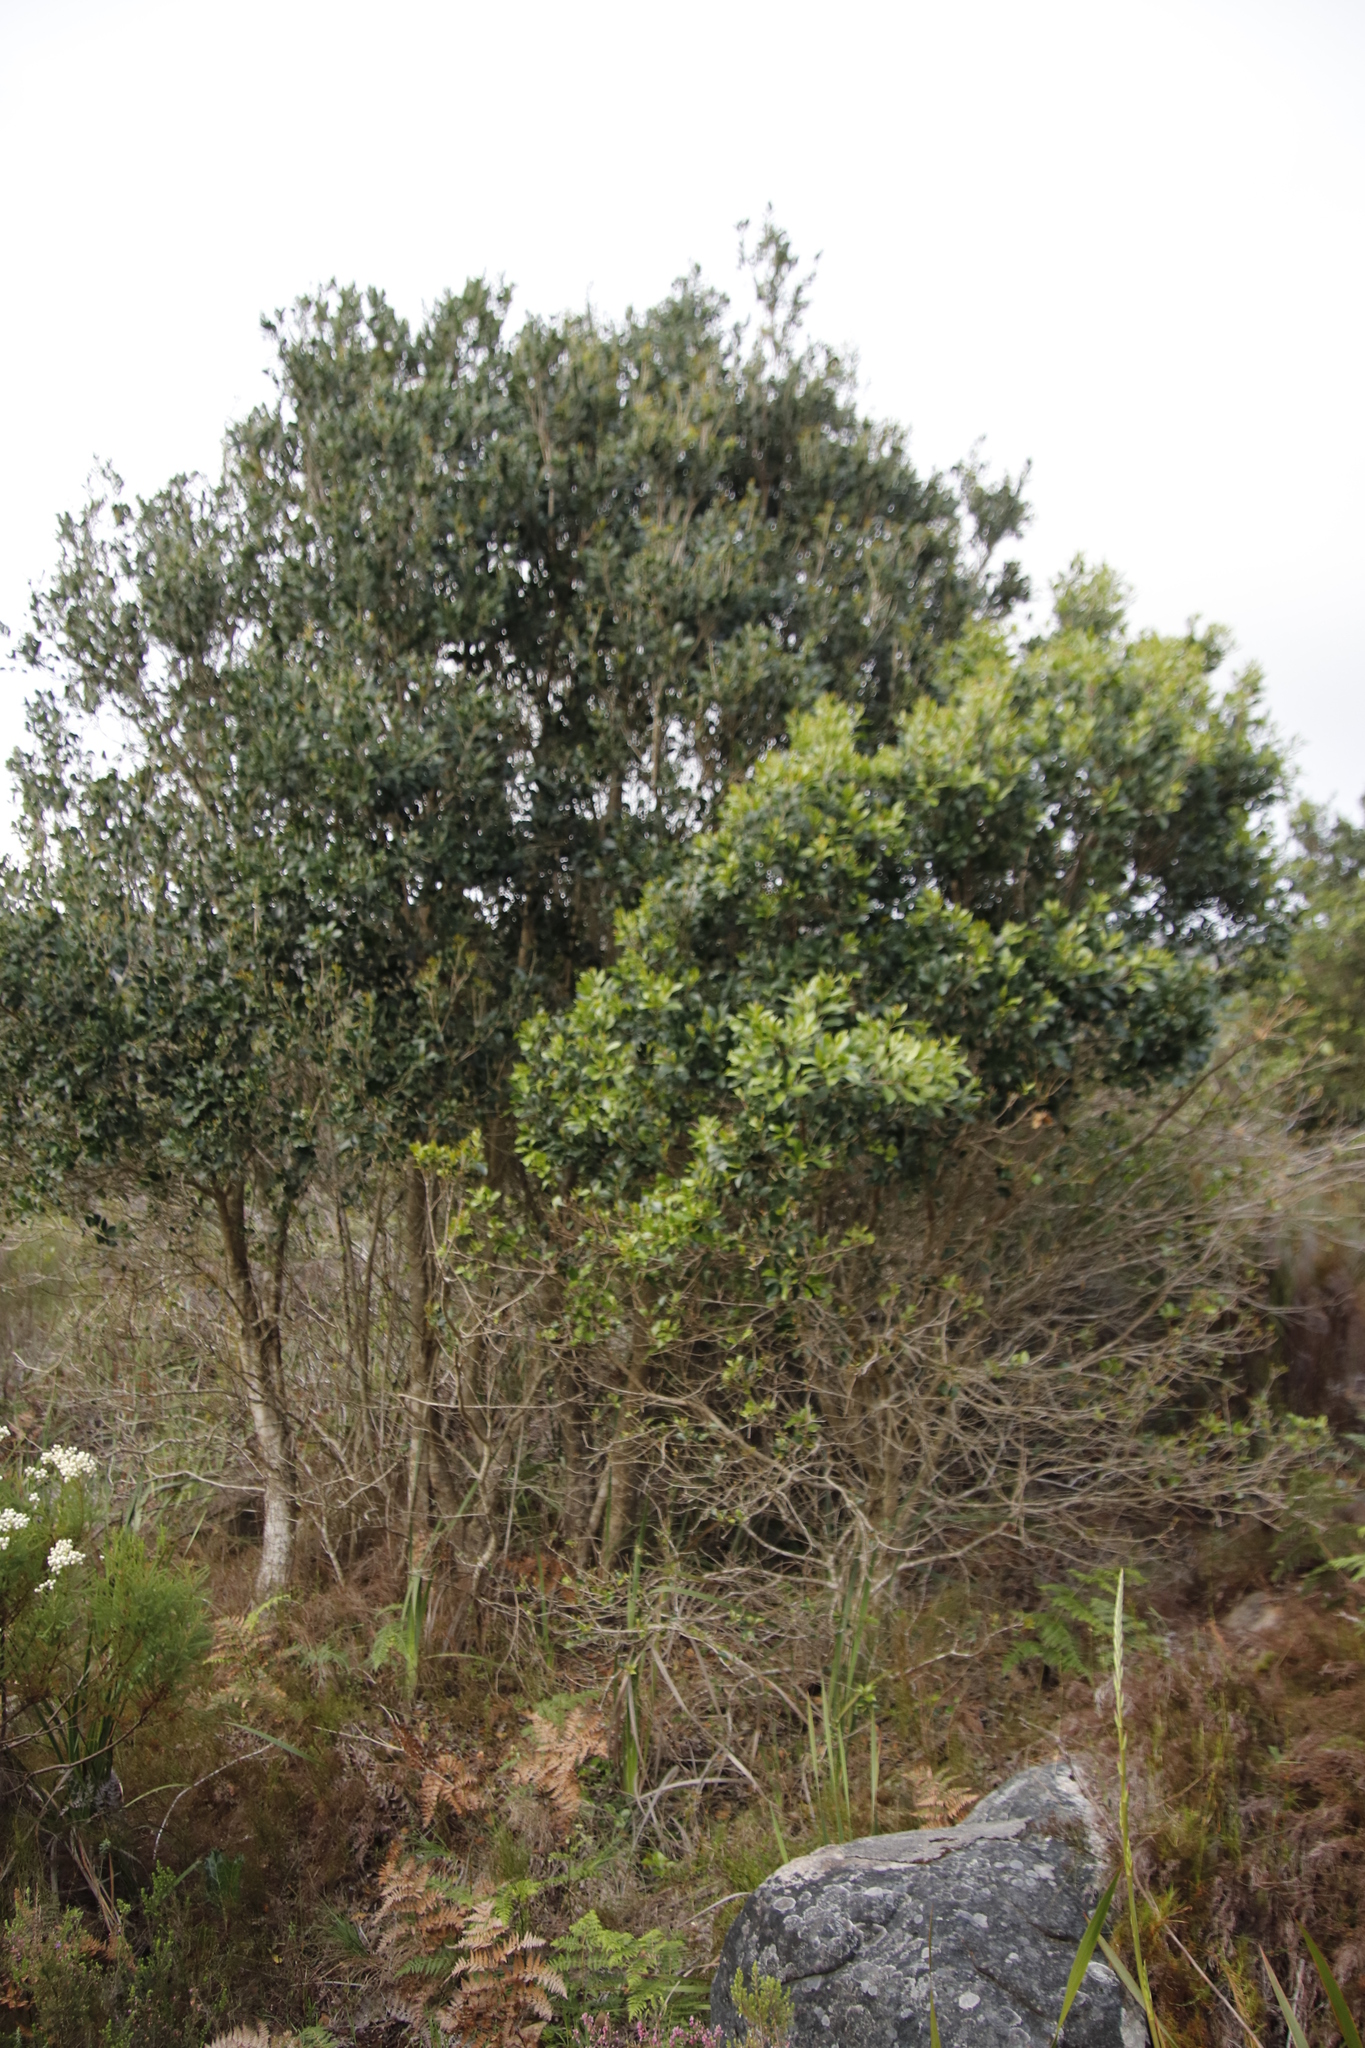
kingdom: Plantae
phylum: Tracheophyta
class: Magnoliopsida
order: Lamiales
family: Oleaceae
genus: Olea
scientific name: Olea capensis
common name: Black ironwood
